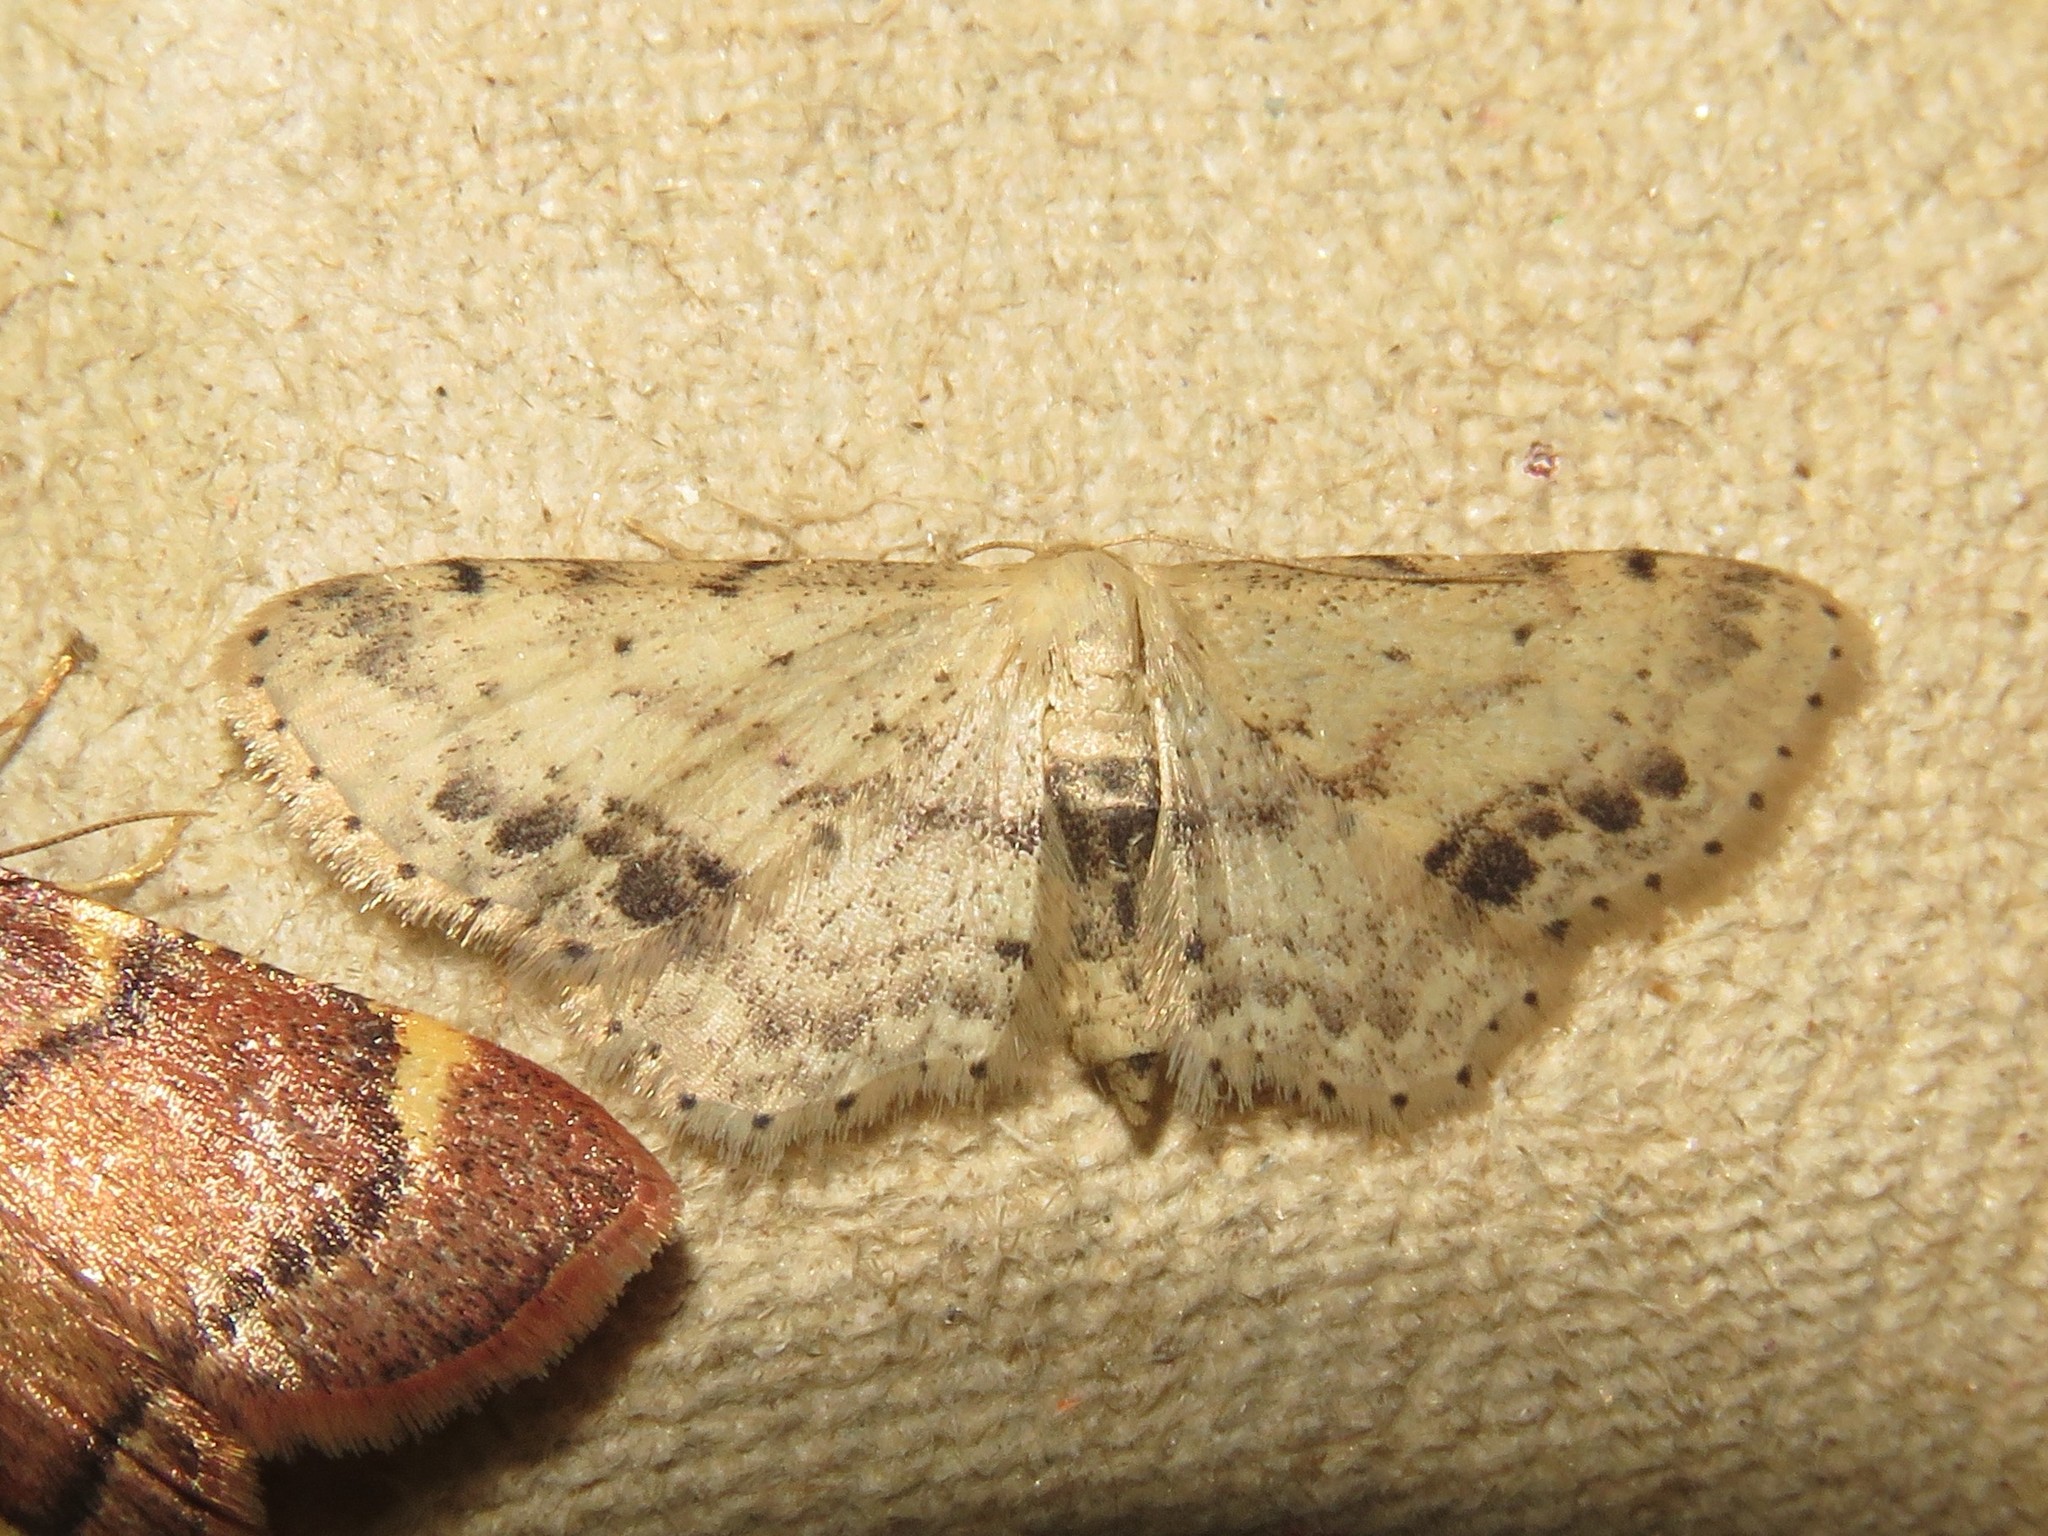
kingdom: Animalia
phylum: Arthropoda
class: Insecta
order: Lepidoptera
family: Geometridae
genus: Idaea
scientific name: Idaea dimidiata
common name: Single-dotted wave
